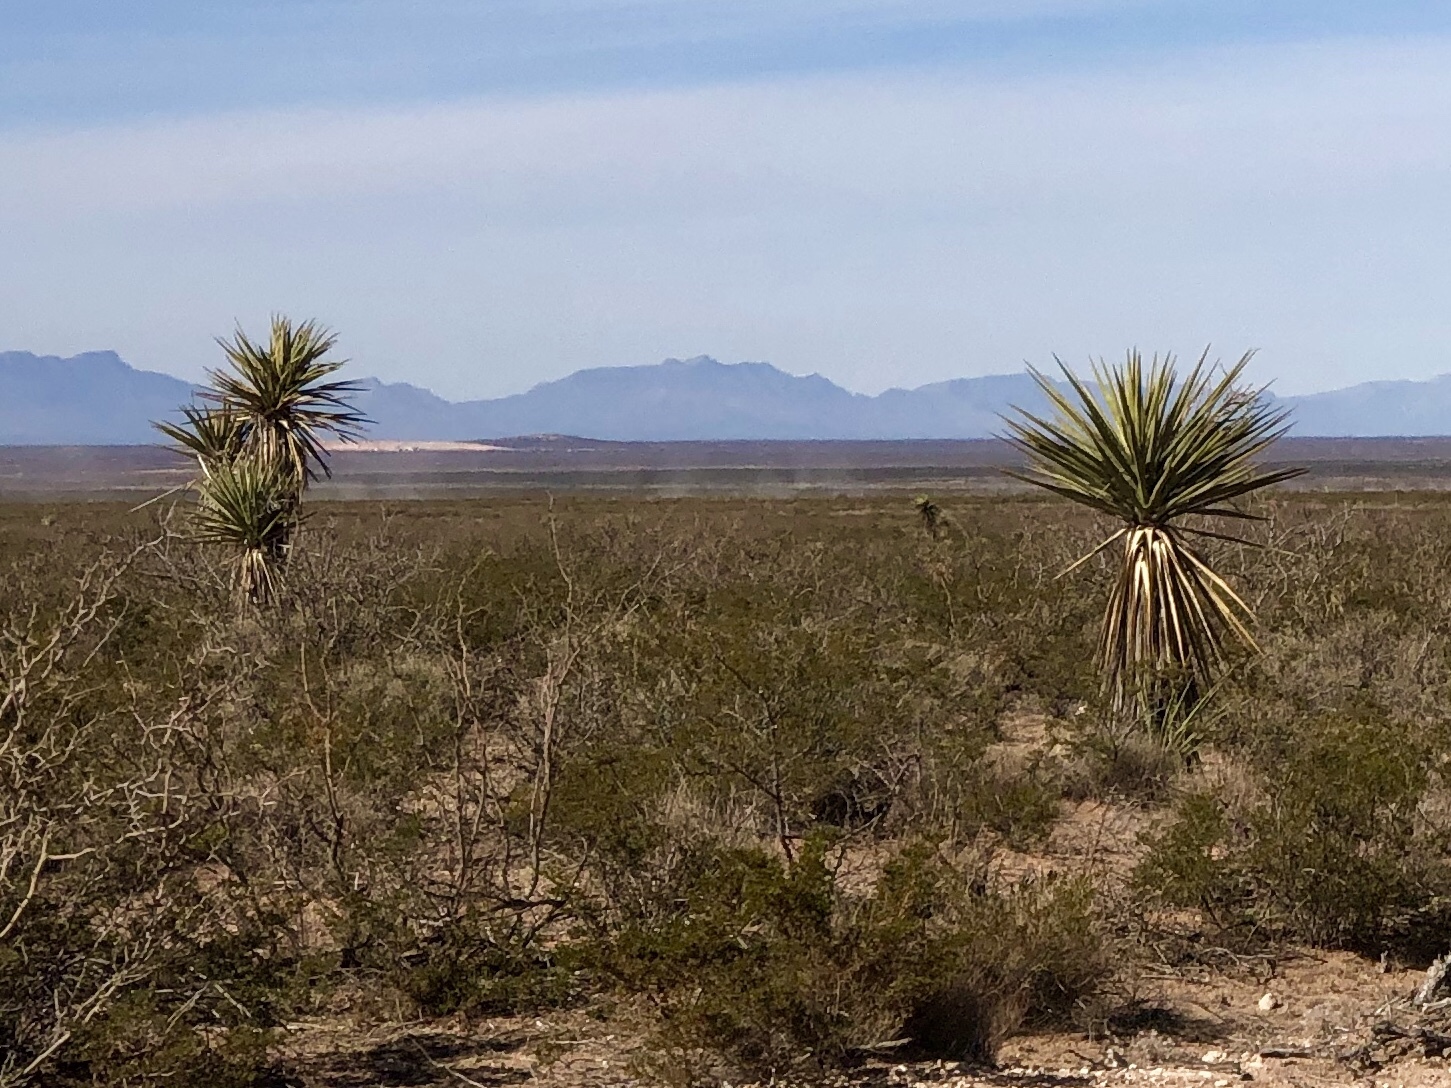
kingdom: Plantae
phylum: Tracheophyta
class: Liliopsida
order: Asparagales
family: Asparagaceae
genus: Yucca
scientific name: Yucca treculiana
